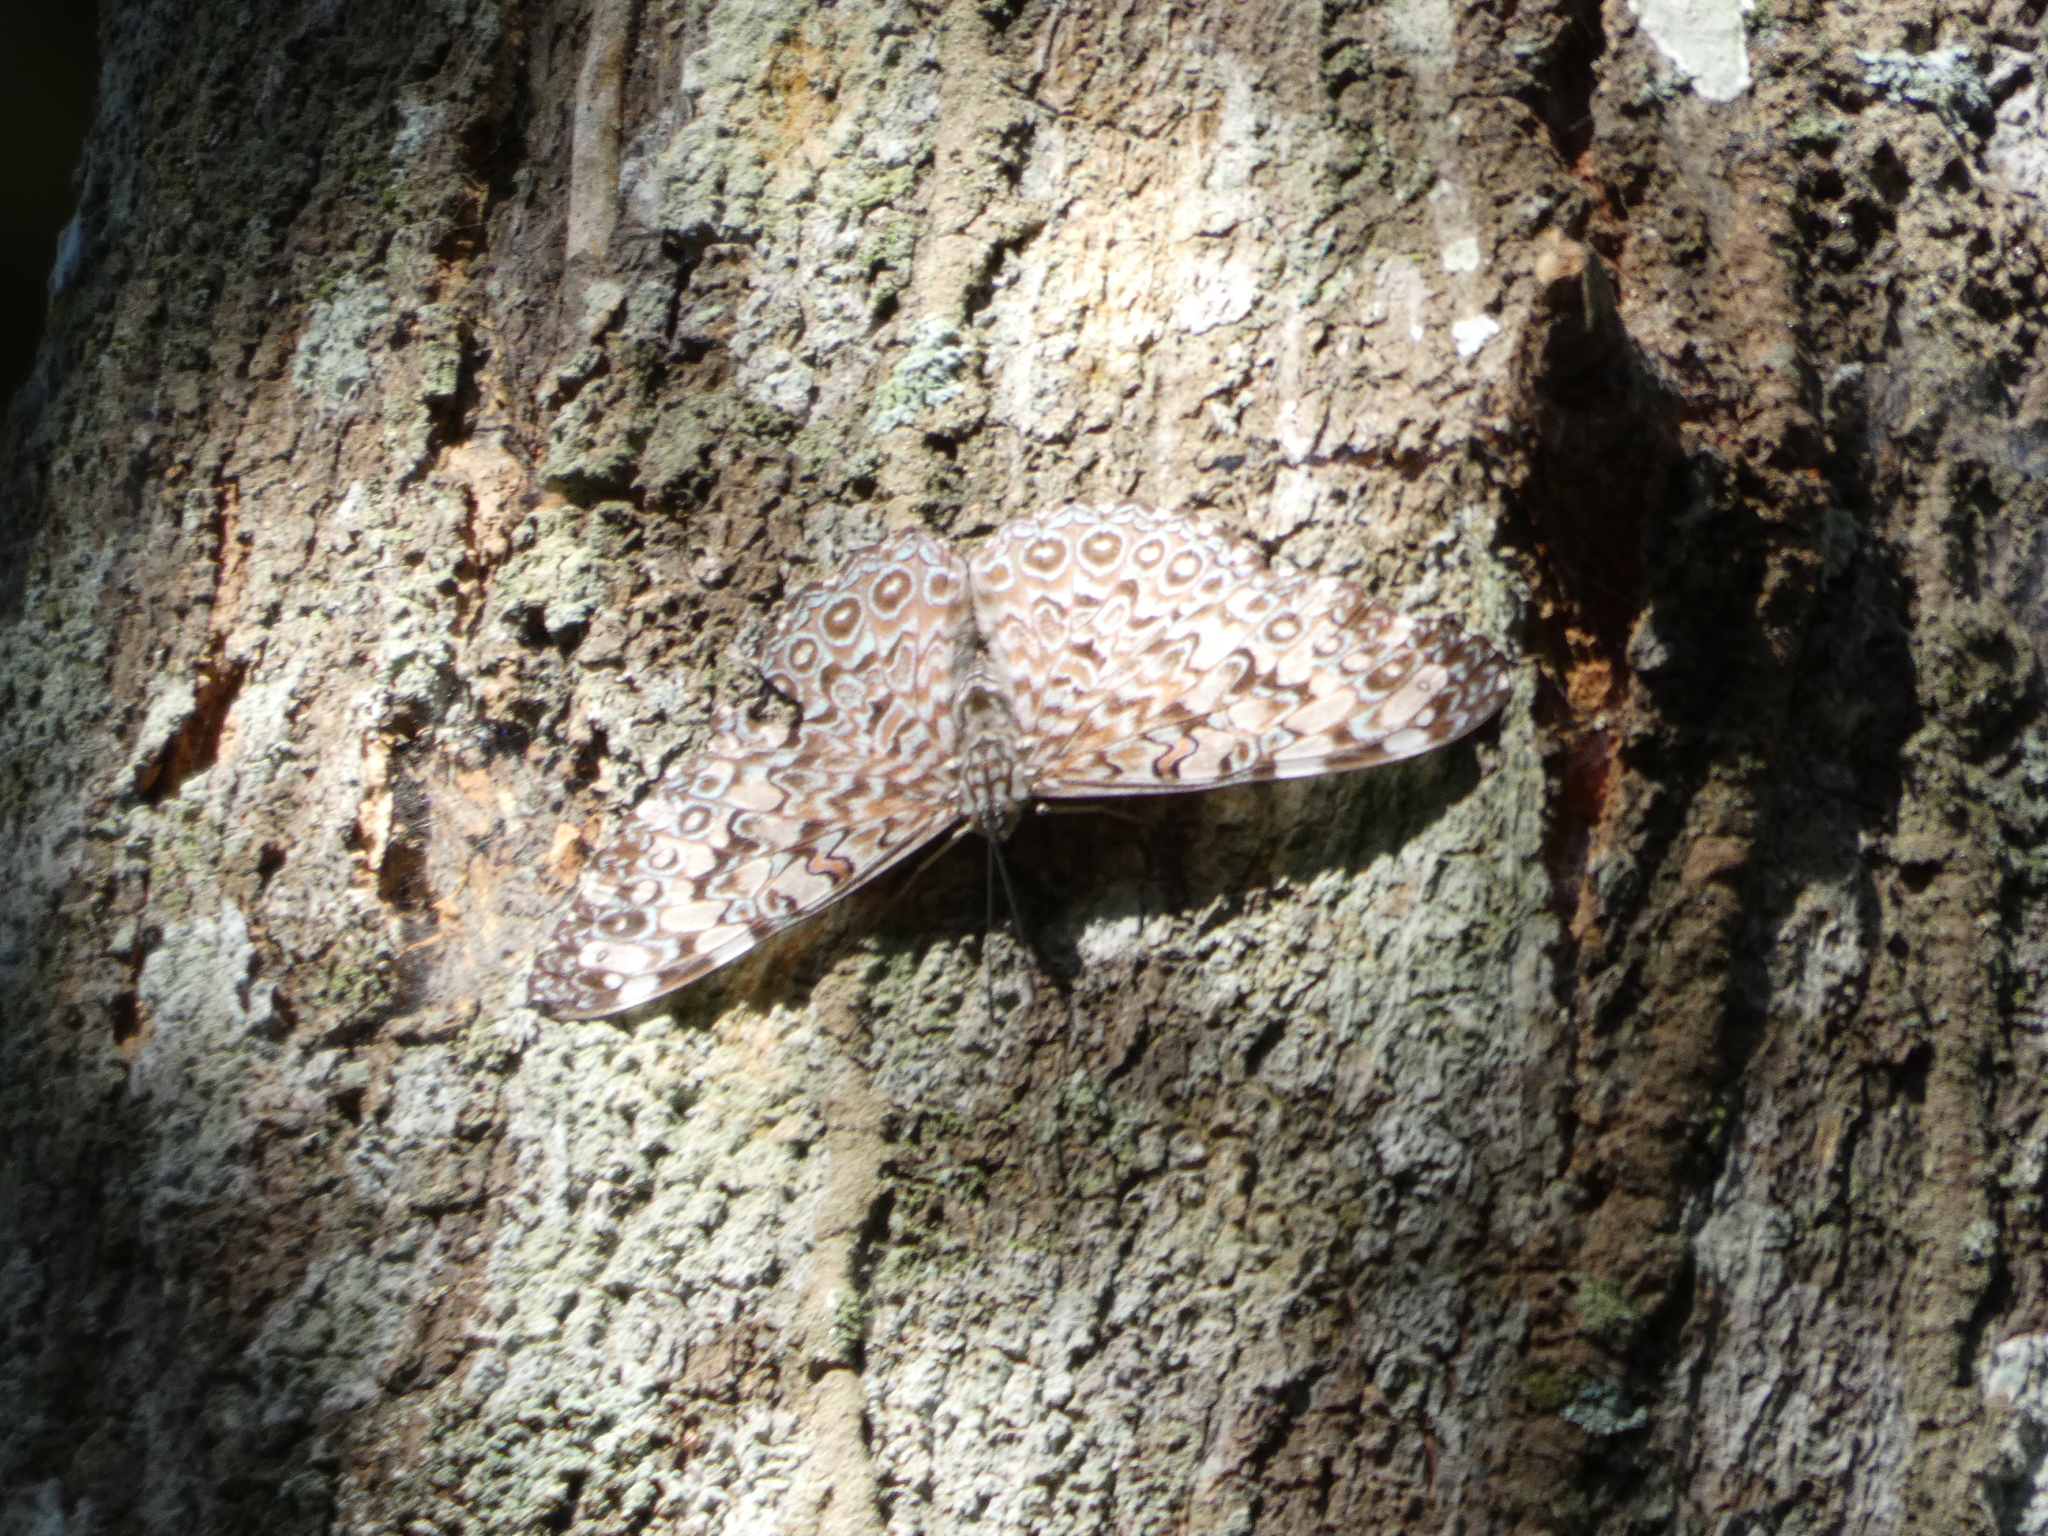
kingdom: Animalia
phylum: Arthropoda
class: Insecta
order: Lepidoptera
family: Nymphalidae
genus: Hamadryas
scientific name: Hamadryas feronia
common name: Variable cracker
